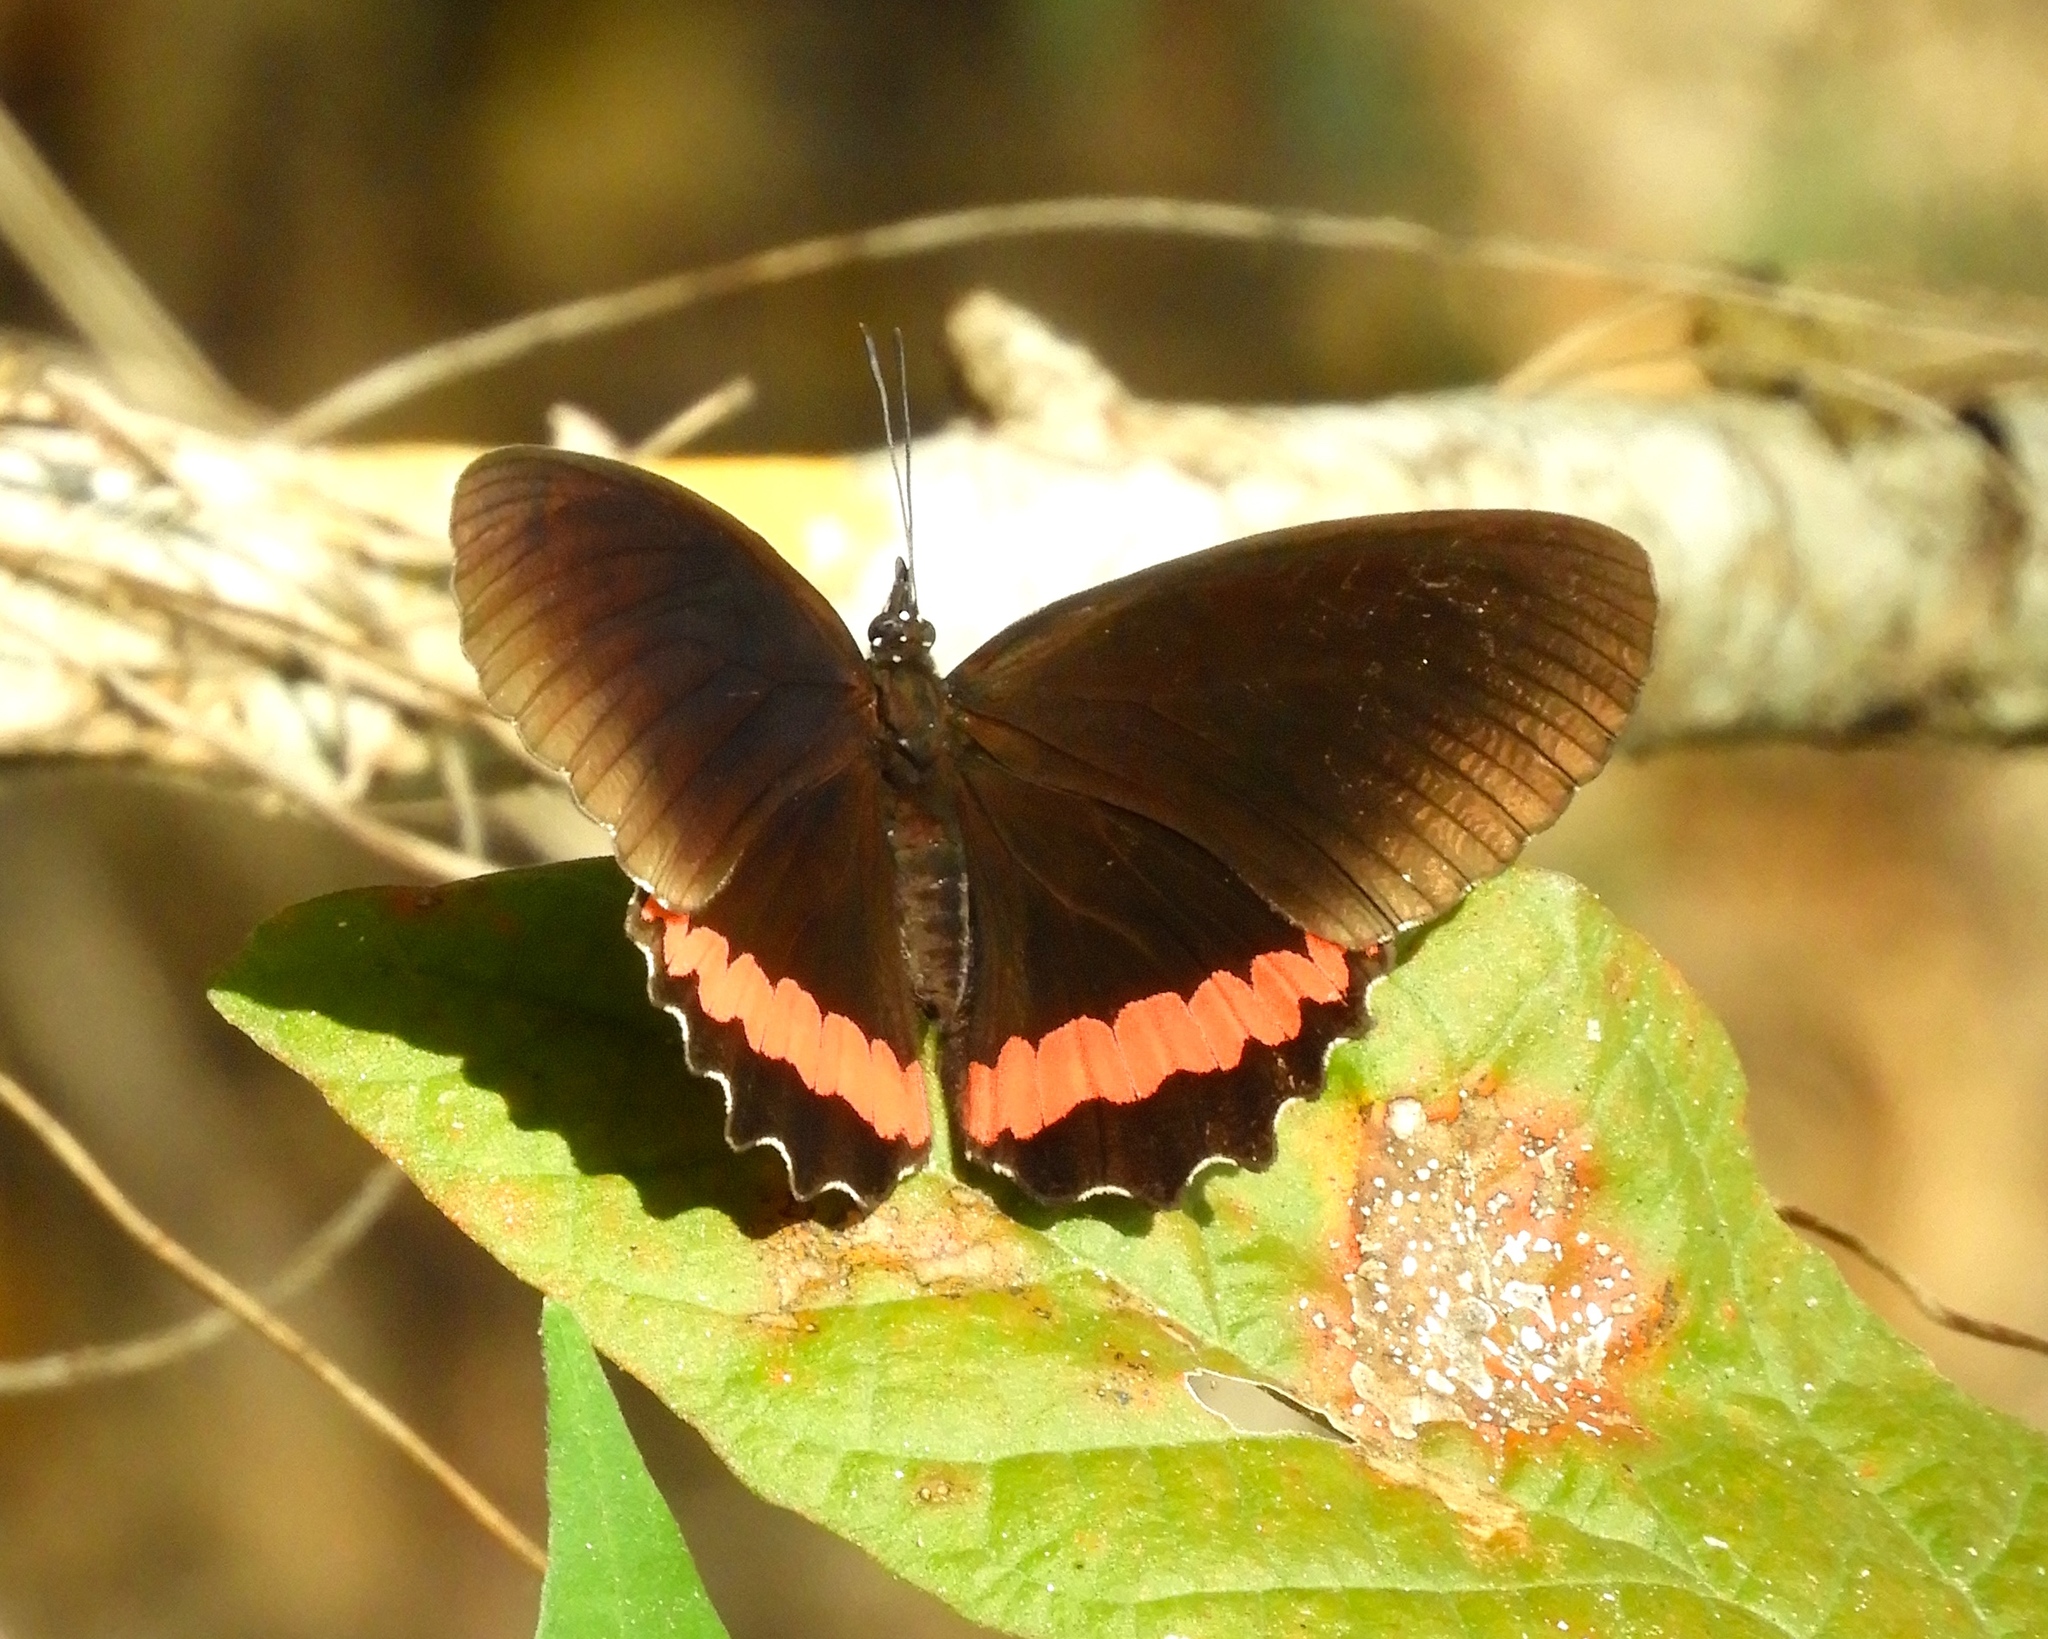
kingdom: Animalia
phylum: Arthropoda
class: Insecta
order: Lepidoptera
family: Nymphalidae
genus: Biblis
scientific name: Biblis aganisa
